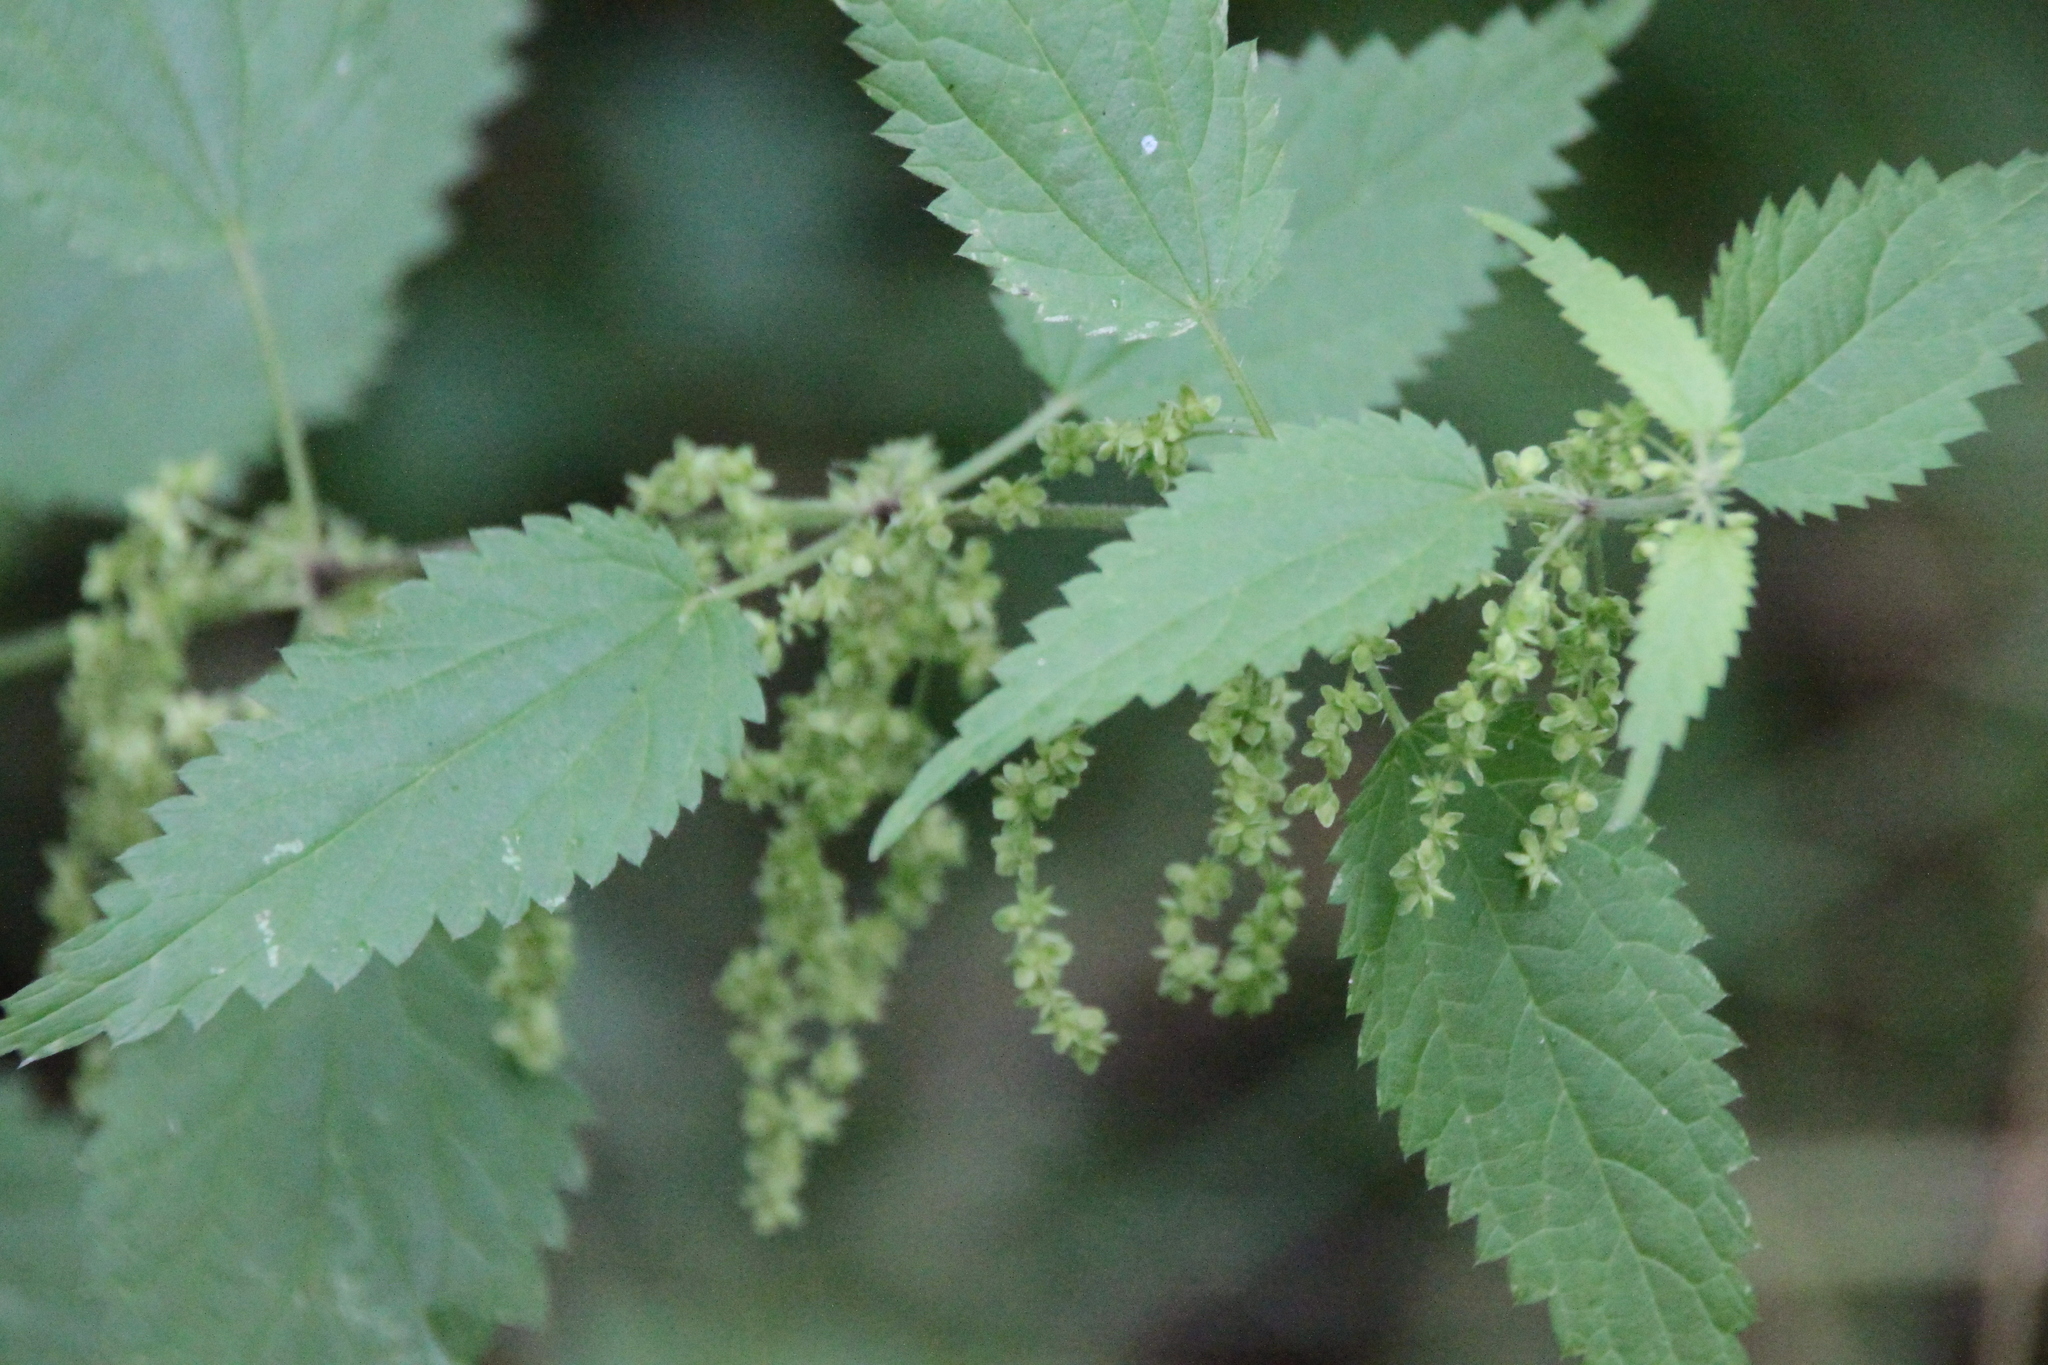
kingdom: Plantae
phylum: Tracheophyta
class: Magnoliopsida
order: Rosales
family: Urticaceae
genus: Urtica
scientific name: Urtica dioica
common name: Common nettle
